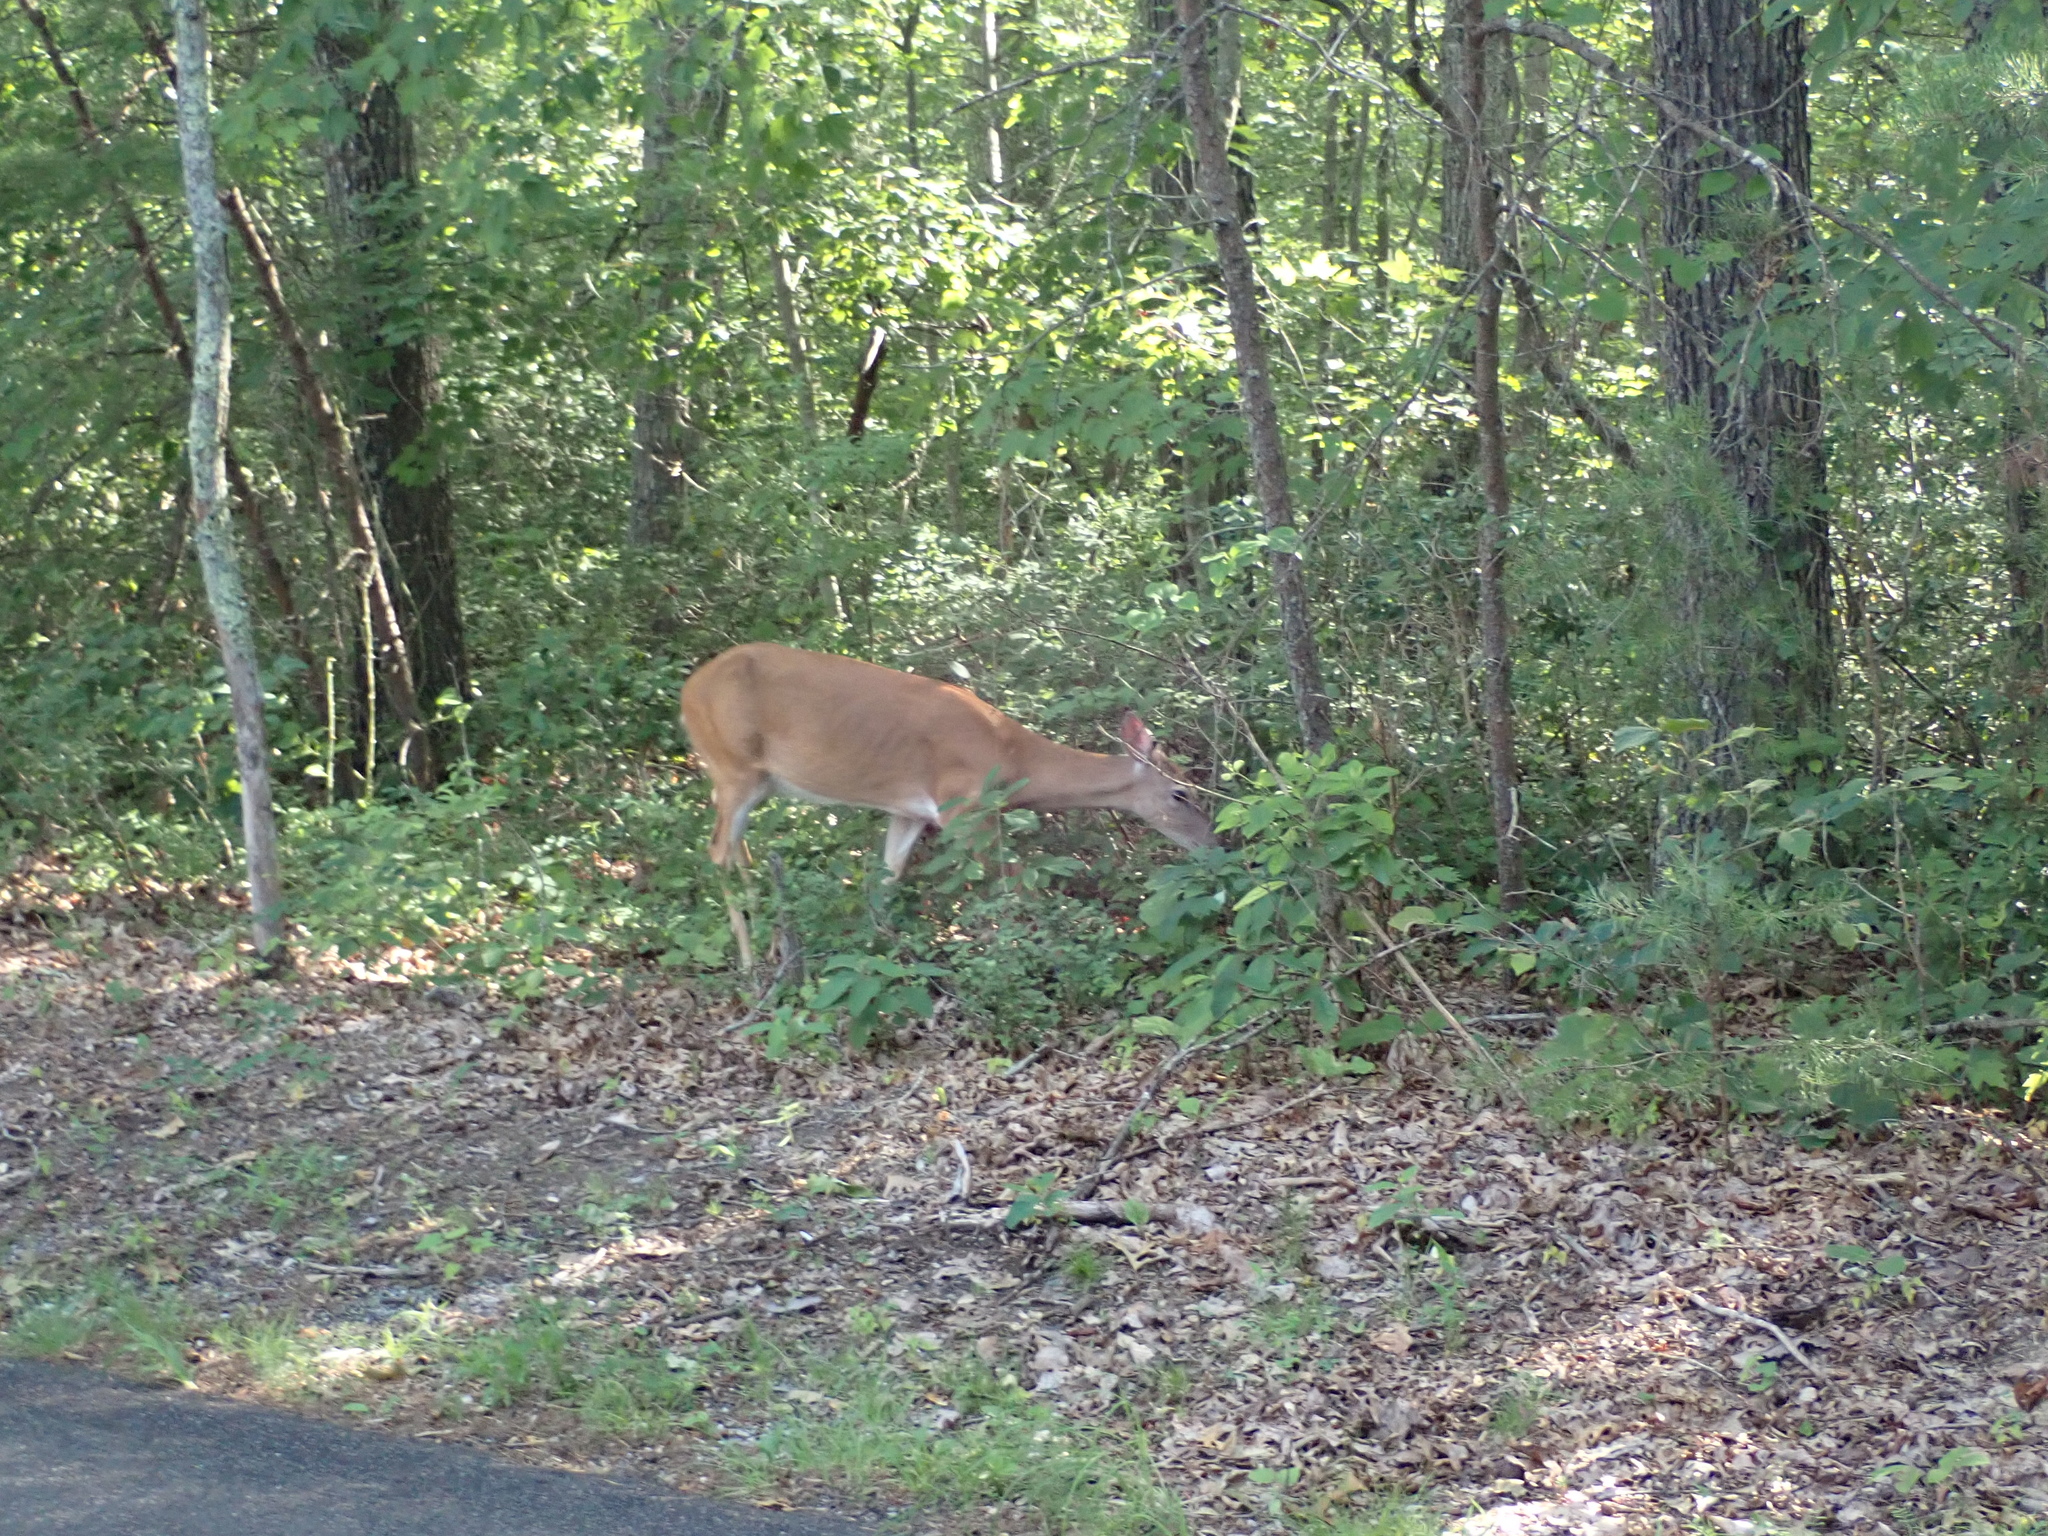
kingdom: Animalia
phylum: Chordata
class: Mammalia
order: Artiodactyla
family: Cervidae
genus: Odocoileus
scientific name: Odocoileus virginianus
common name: White-tailed deer
